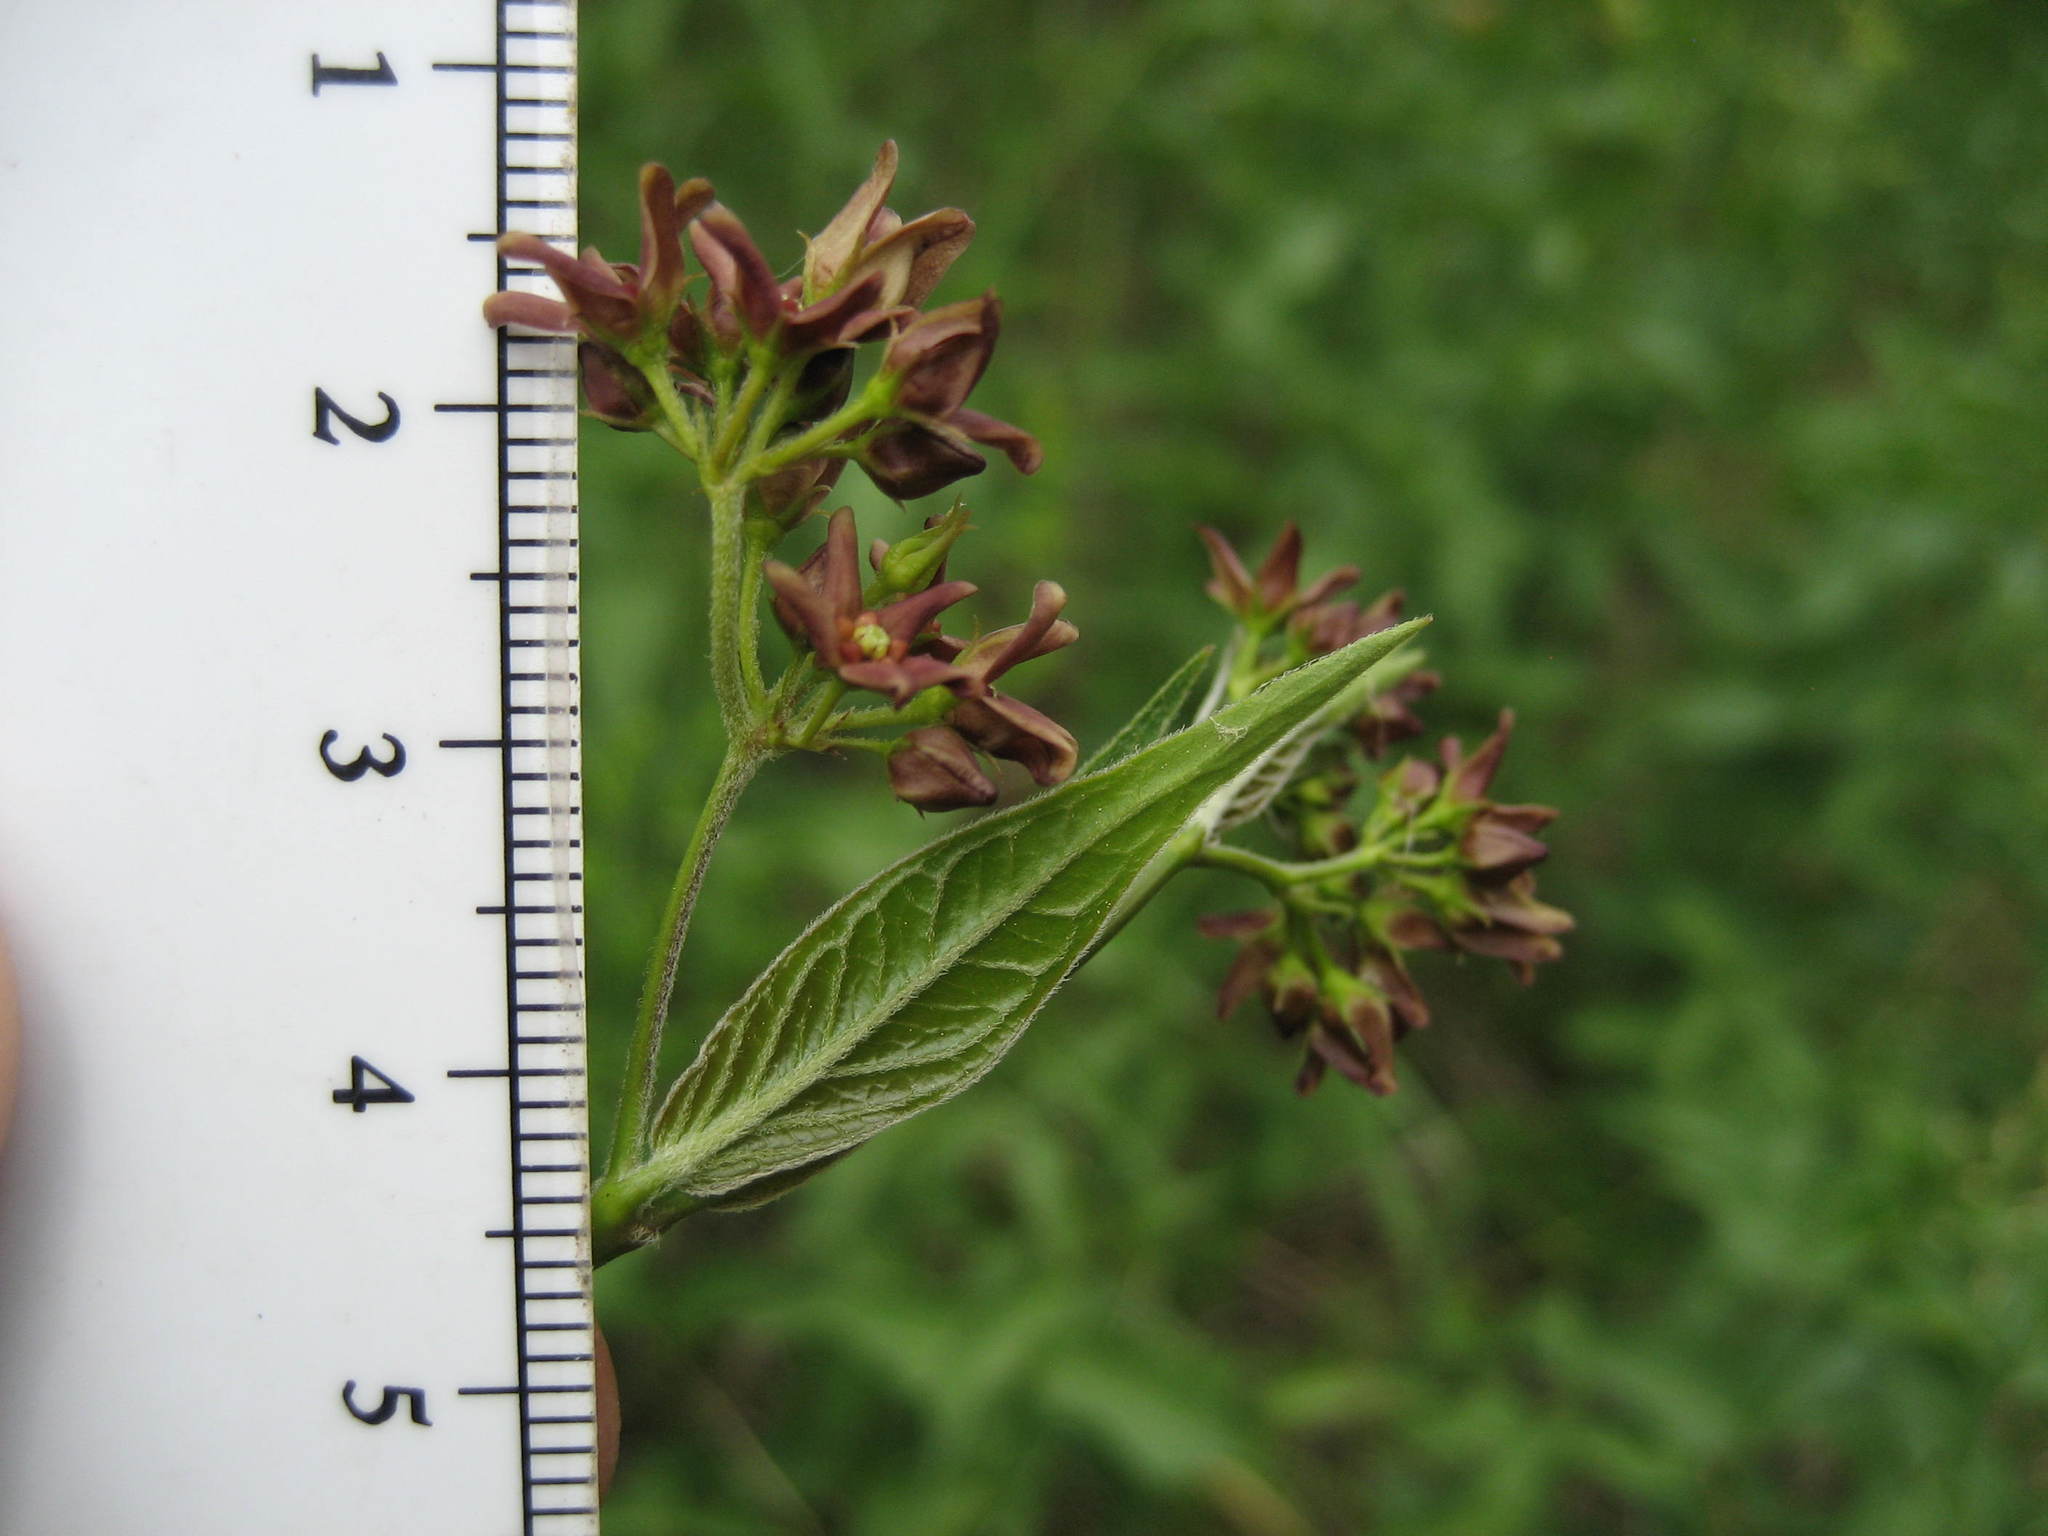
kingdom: Plantae
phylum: Tracheophyta
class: Magnoliopsida
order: Gentianales
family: Apocynaceae
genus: Vincetoxicum
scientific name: Vincetoxicum rossicum
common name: Dog-strangling vine
